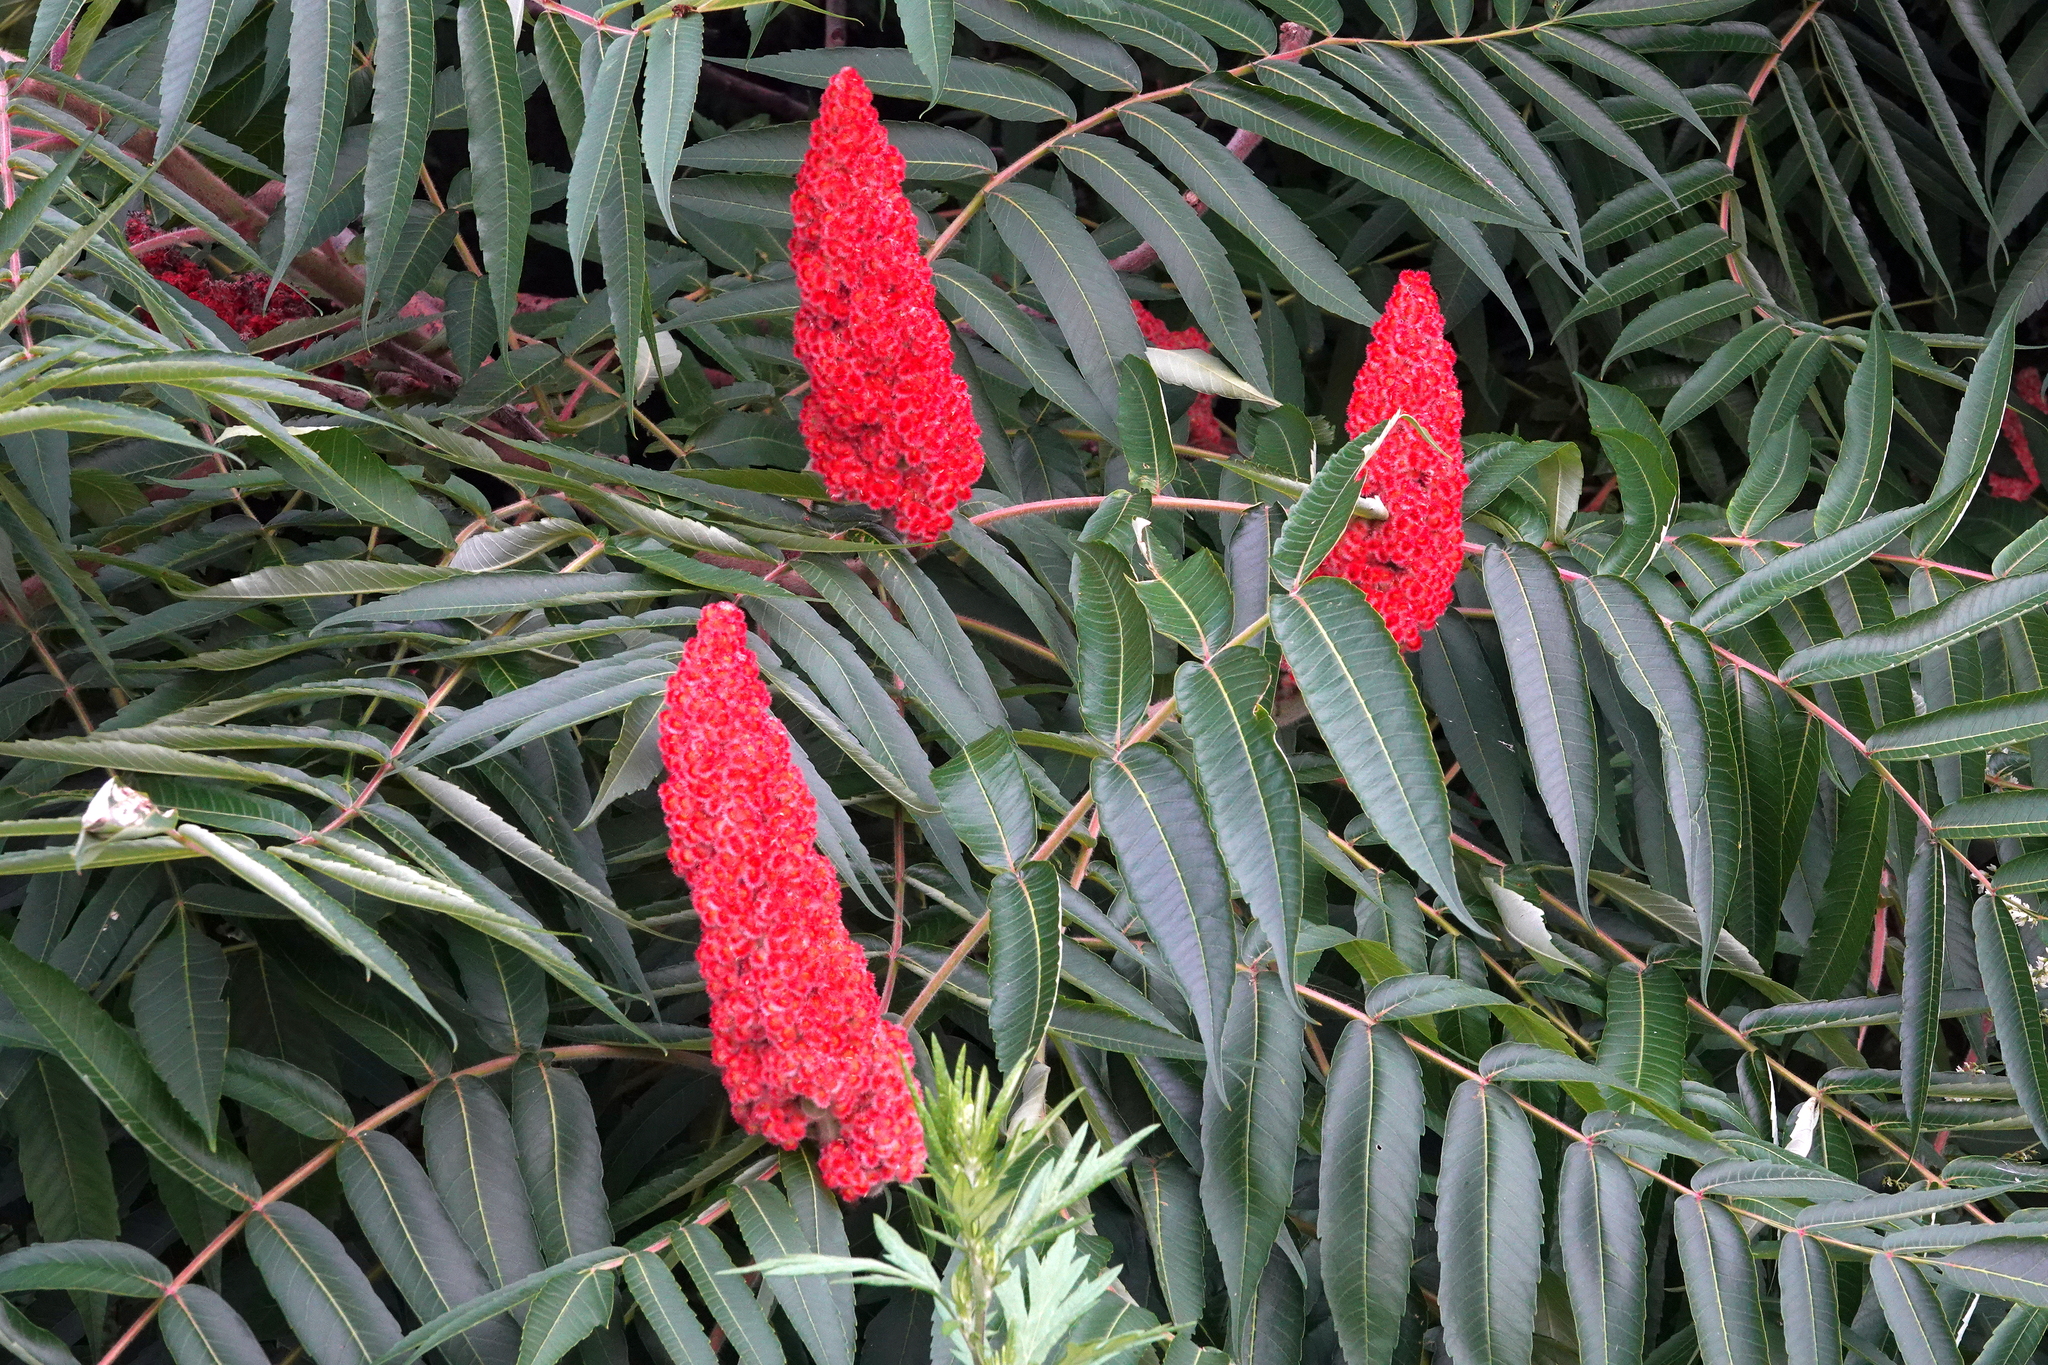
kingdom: Plantae
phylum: Tracheophyta
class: Magnoliopsida
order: Sapindales
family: Anacardiaceae
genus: Rhus
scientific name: Rhus typhina
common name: Staghorn sumac
